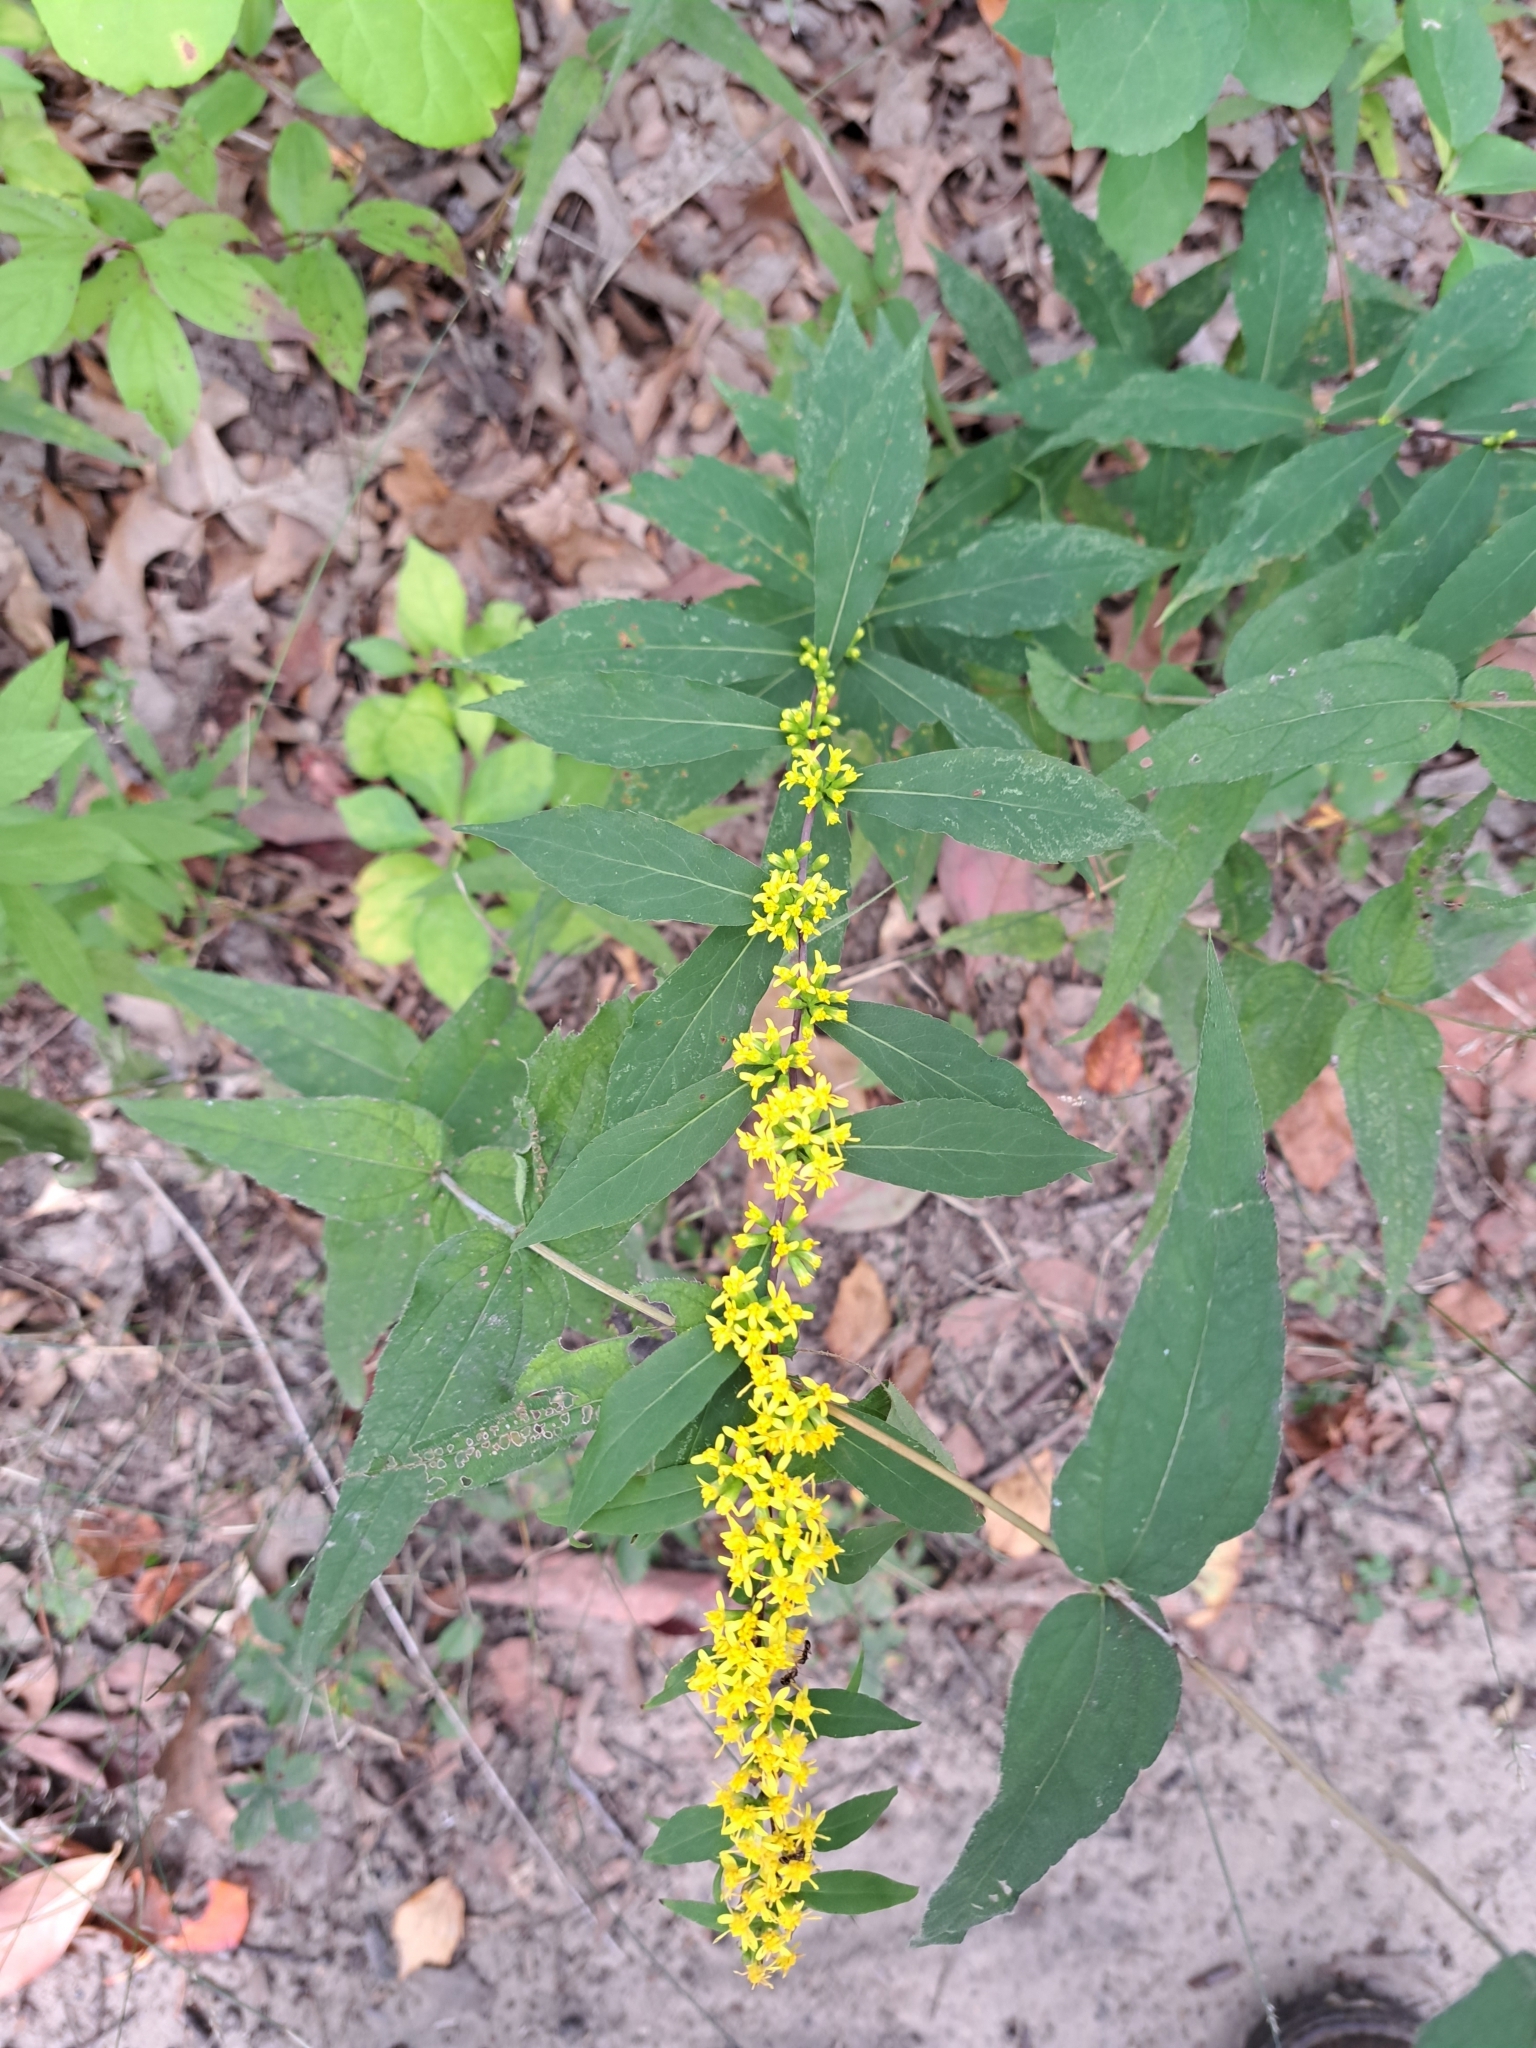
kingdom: Plantae
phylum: Tracheophyta
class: Magnoliopsida
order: Asterales
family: Asteraceae
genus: Solidago
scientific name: Solidago caesia
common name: Woodland goldenrod
